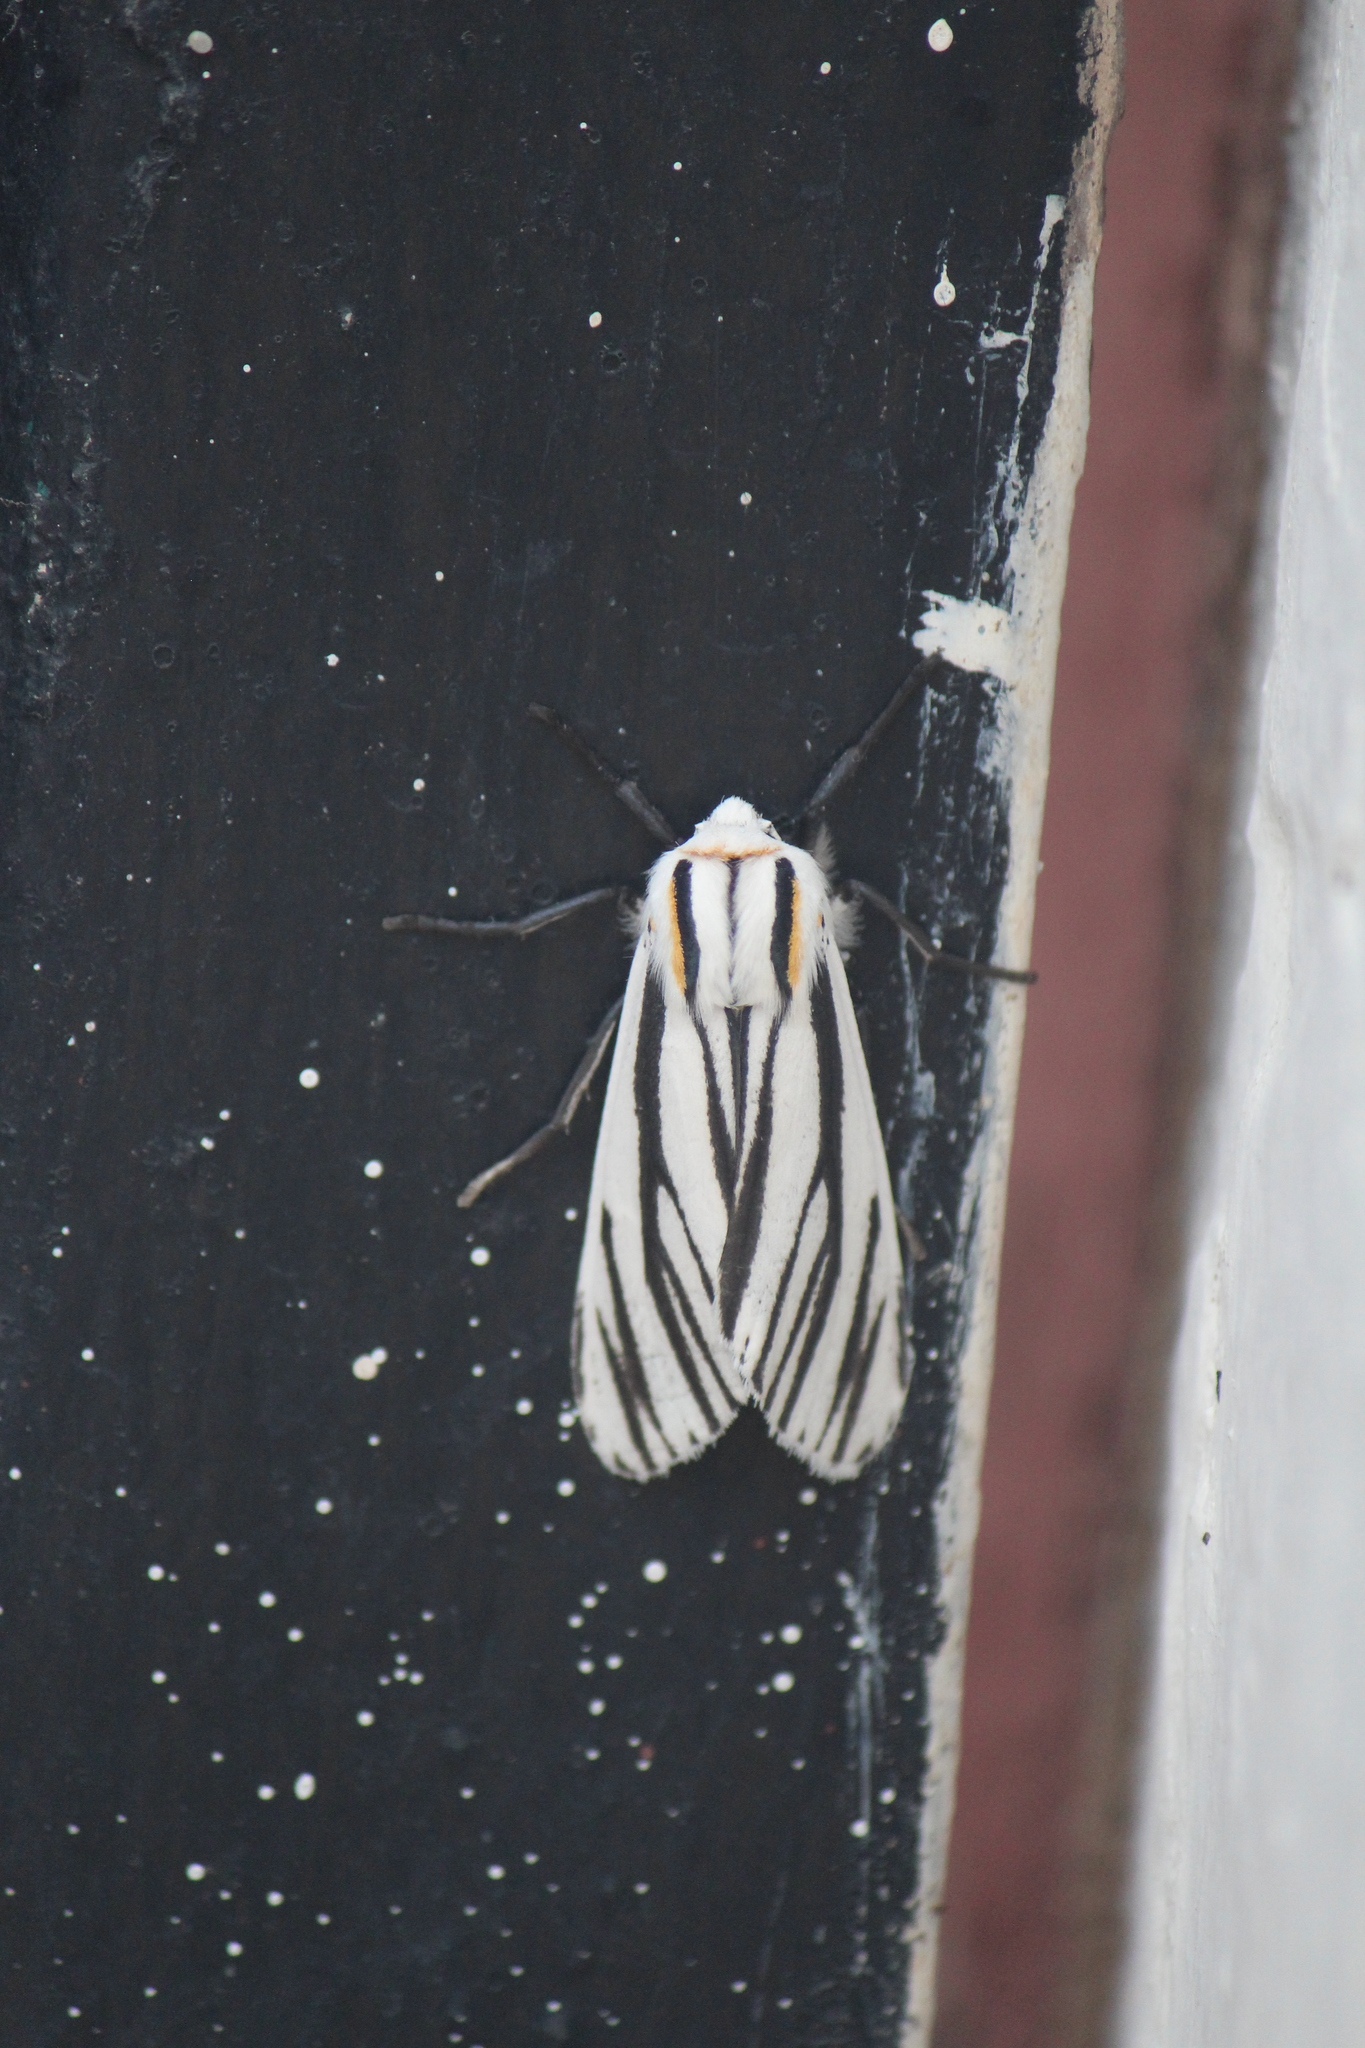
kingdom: Animalia
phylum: Arthropoda
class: Insecta
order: Lepidoptera
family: Erebidae
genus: Ectypia
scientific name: Ectypia clio
